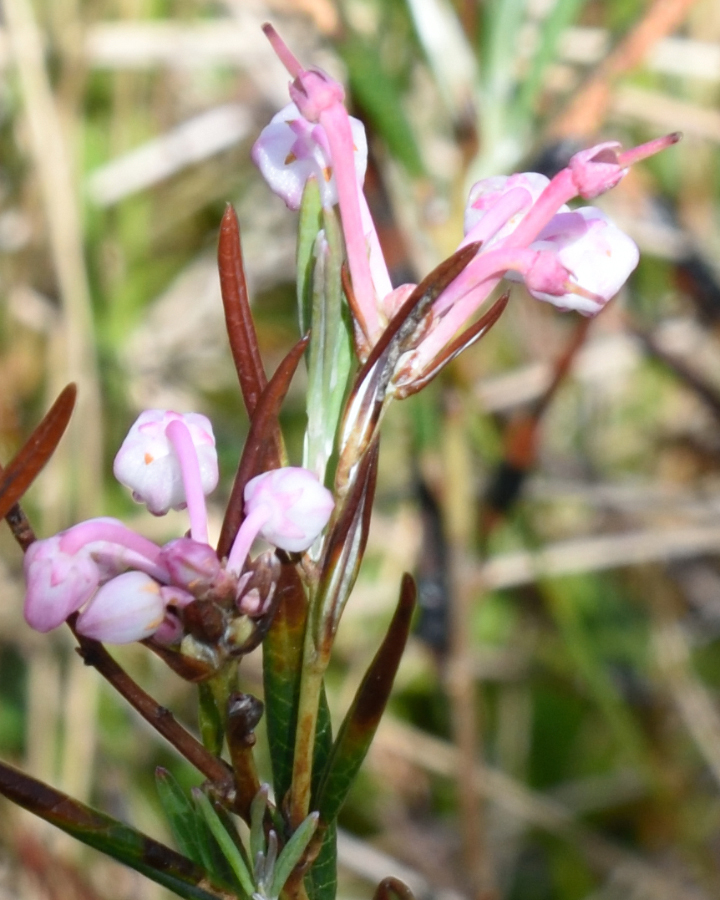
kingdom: Plantae
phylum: Tracheophyta
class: Magnoliopsida
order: Ericales
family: Ericaceae
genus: Andromeda
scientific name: Andromeda polifolia
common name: Bog-rosemary
